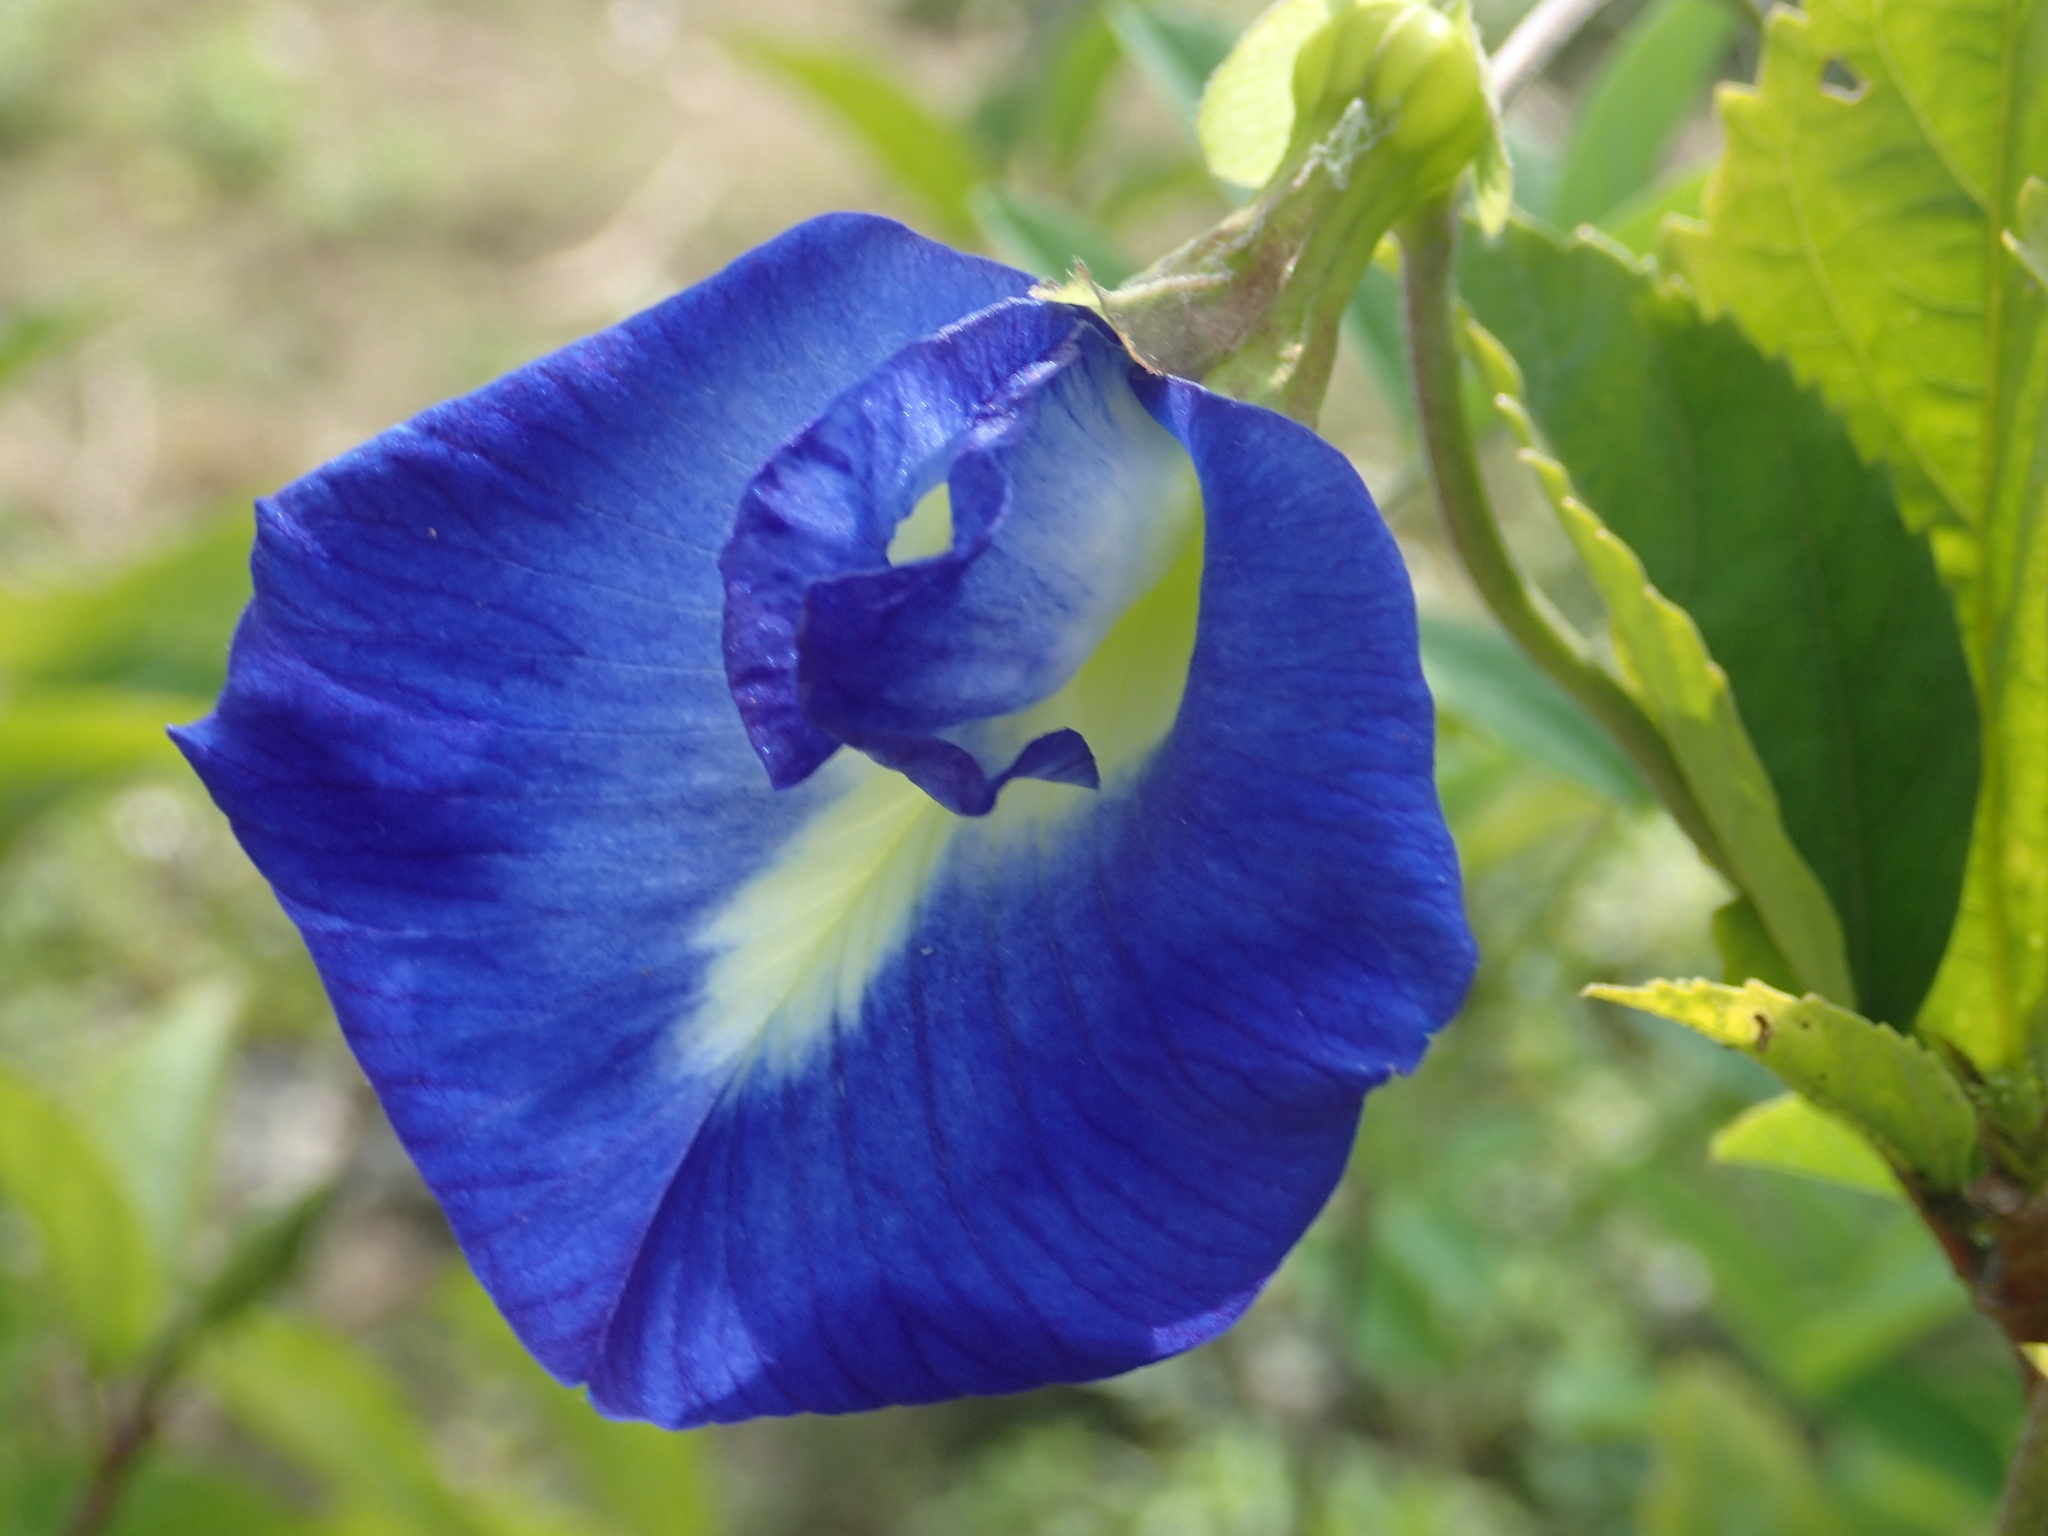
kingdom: Plantae
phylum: Tracheophyta
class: Magnoliopsida
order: Fabales
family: Fabaceae
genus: Clitoria
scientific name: Clitoria ternatea
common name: Asian pigeonwings
